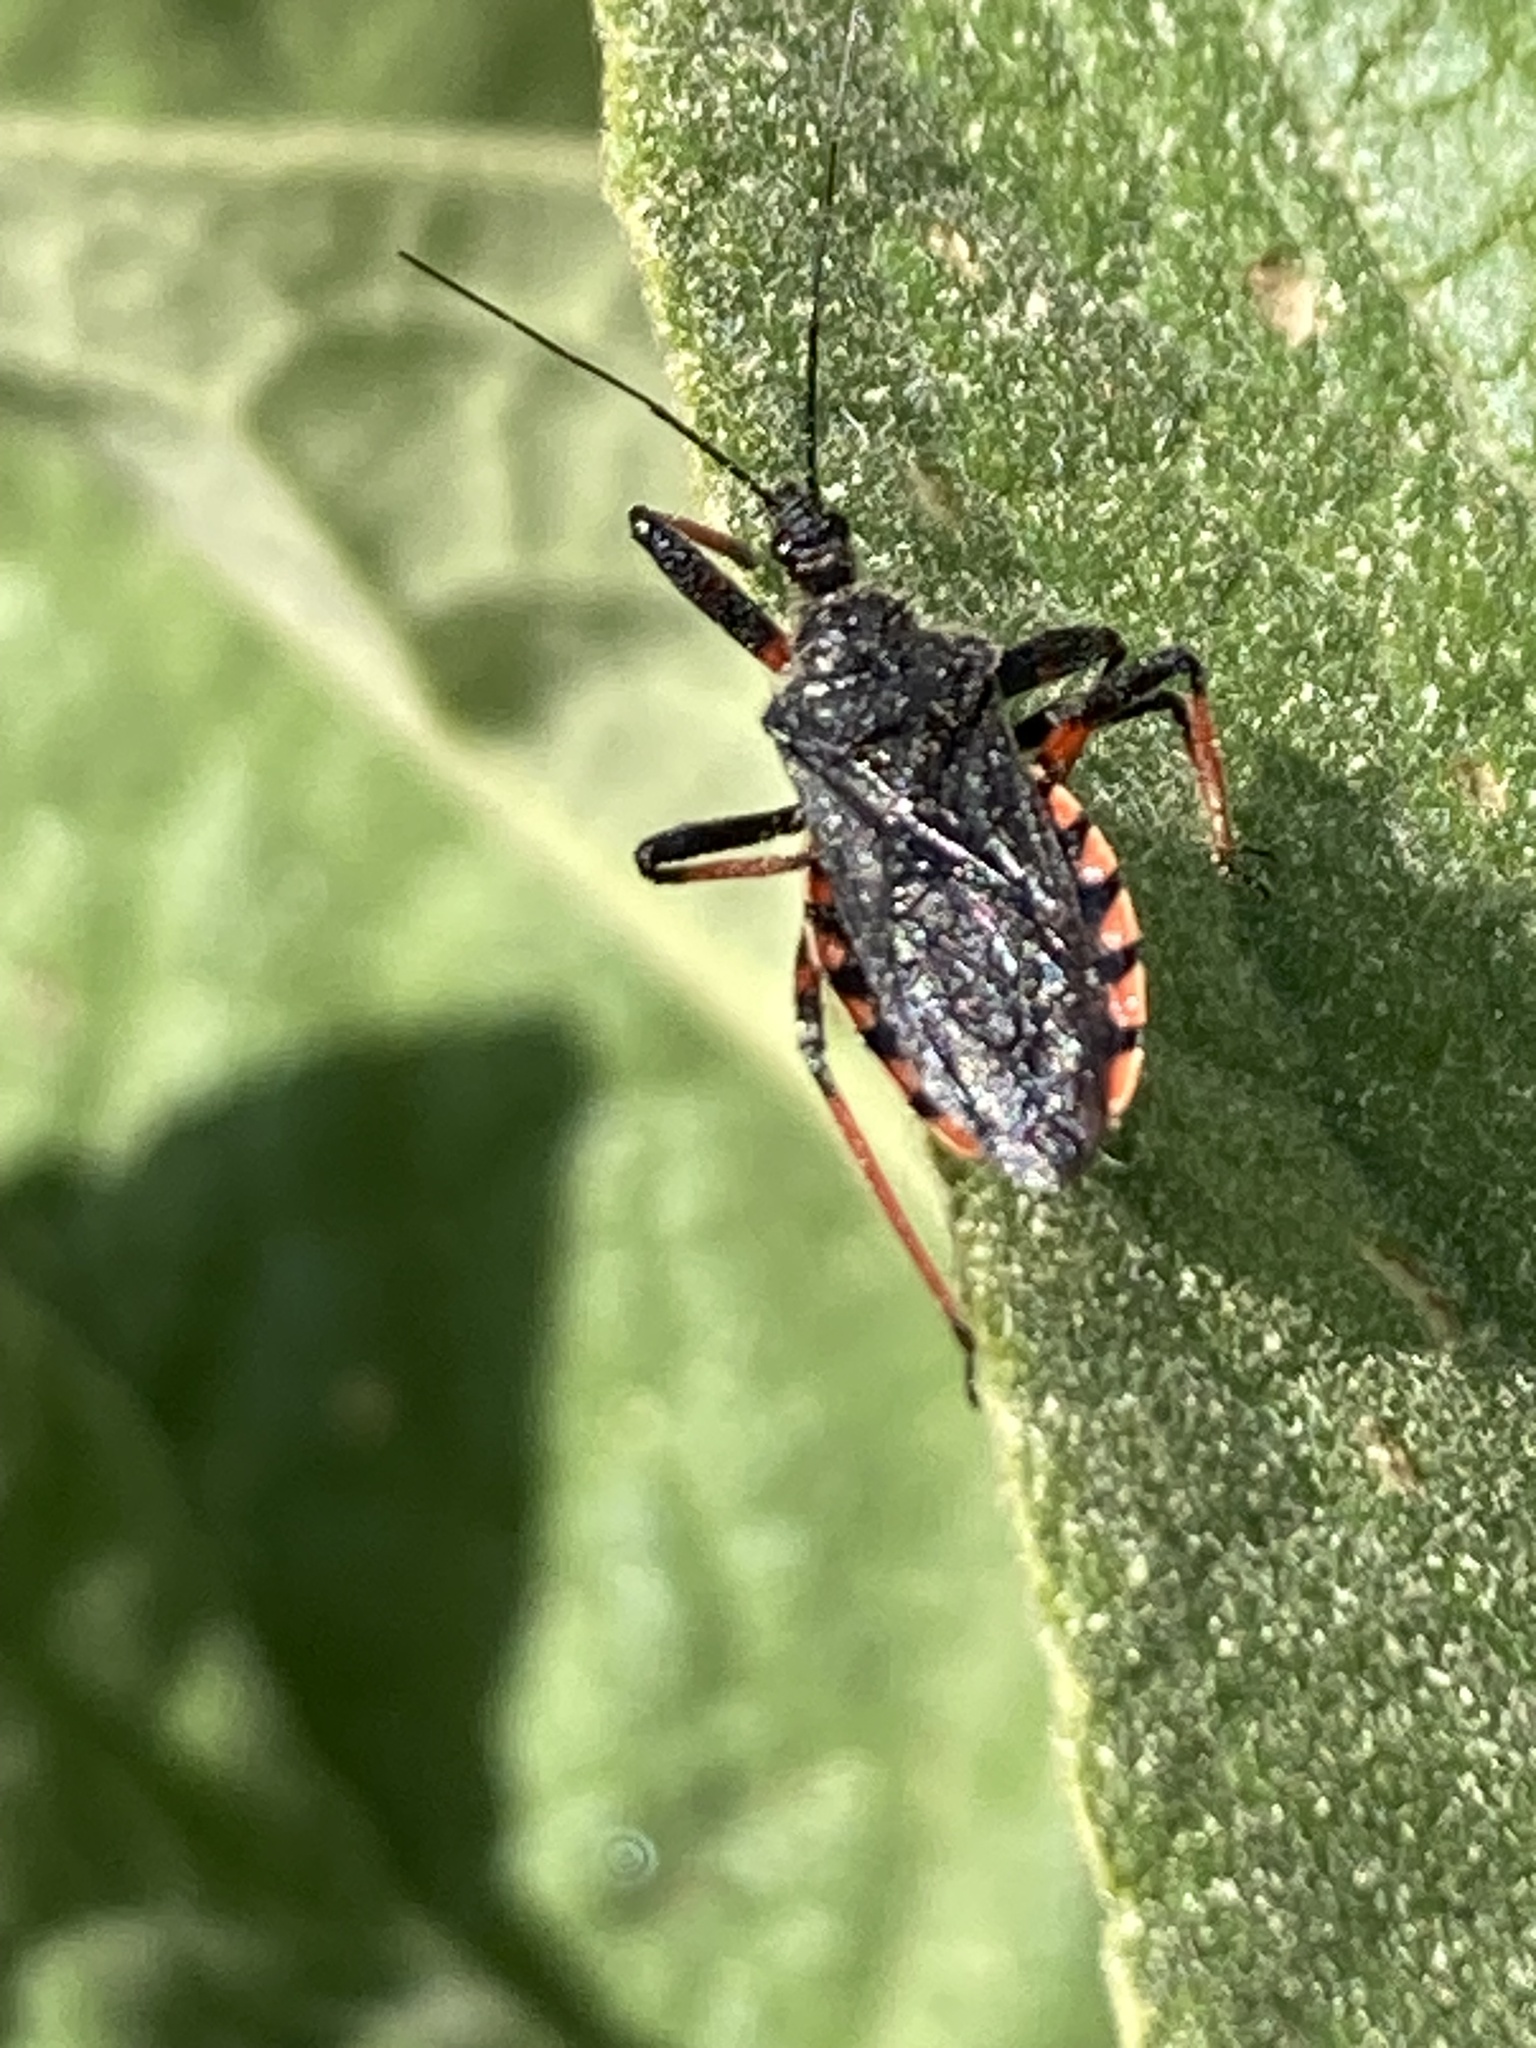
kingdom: Animalia
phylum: Arthropoda
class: Insecta
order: Hemiptera
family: Reduviidae
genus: Rhynocoris
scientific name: Rhynocoris annulatus
